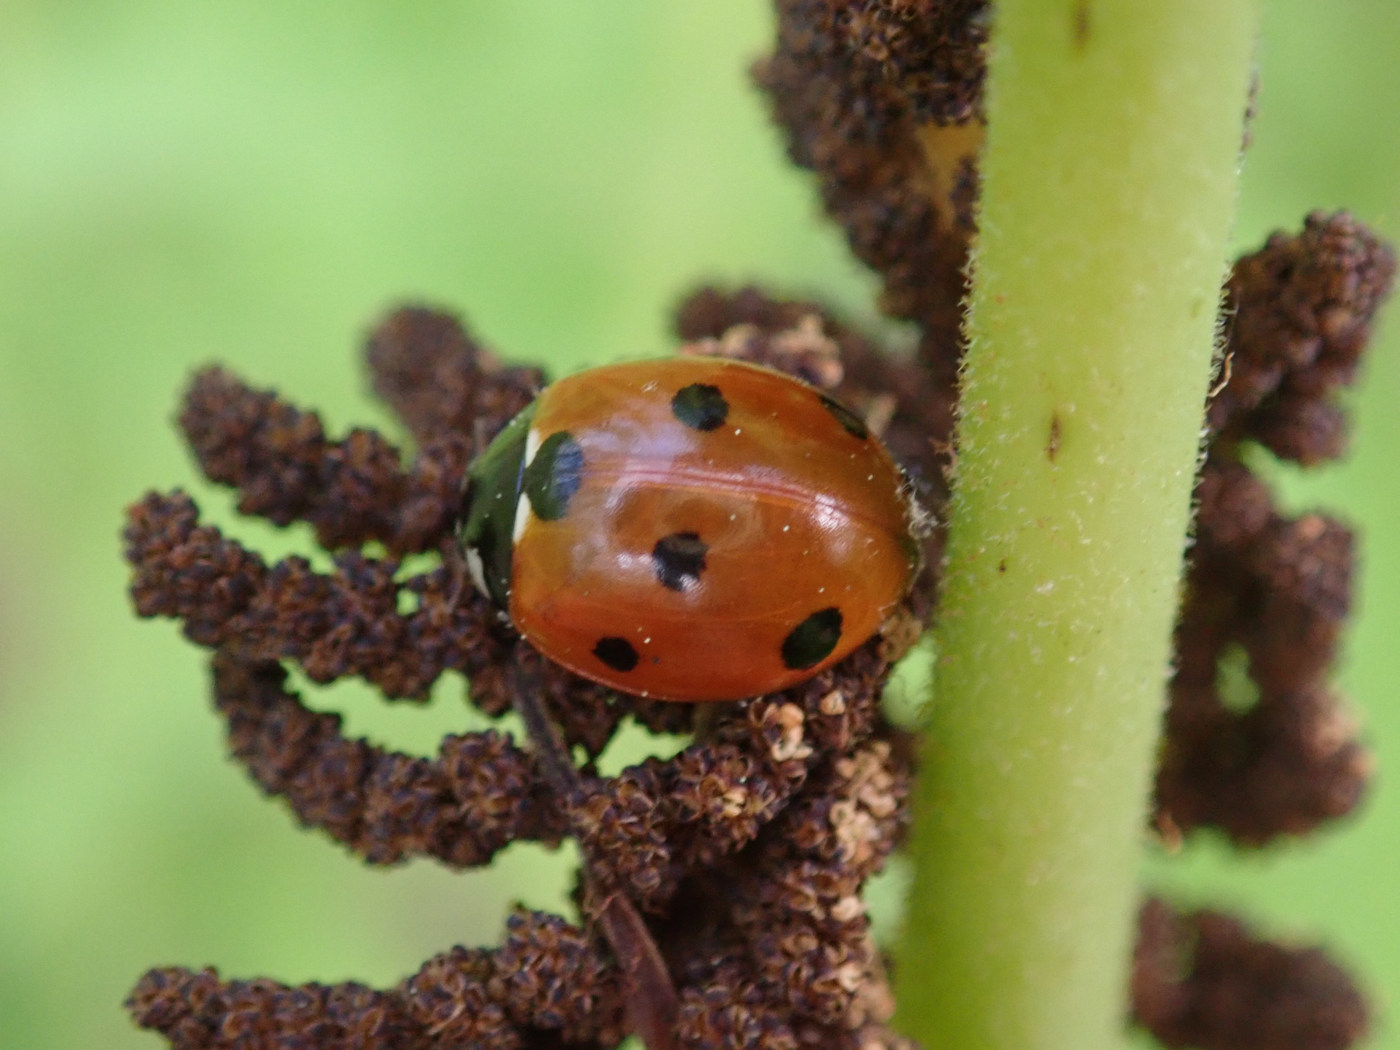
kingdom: Animalia
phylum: Arthropoda
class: Insecta
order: Coleoptera
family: Coccinellidae
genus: Coccinella
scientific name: Coccinella septempunctata
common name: Sevenspotted lady beetle
